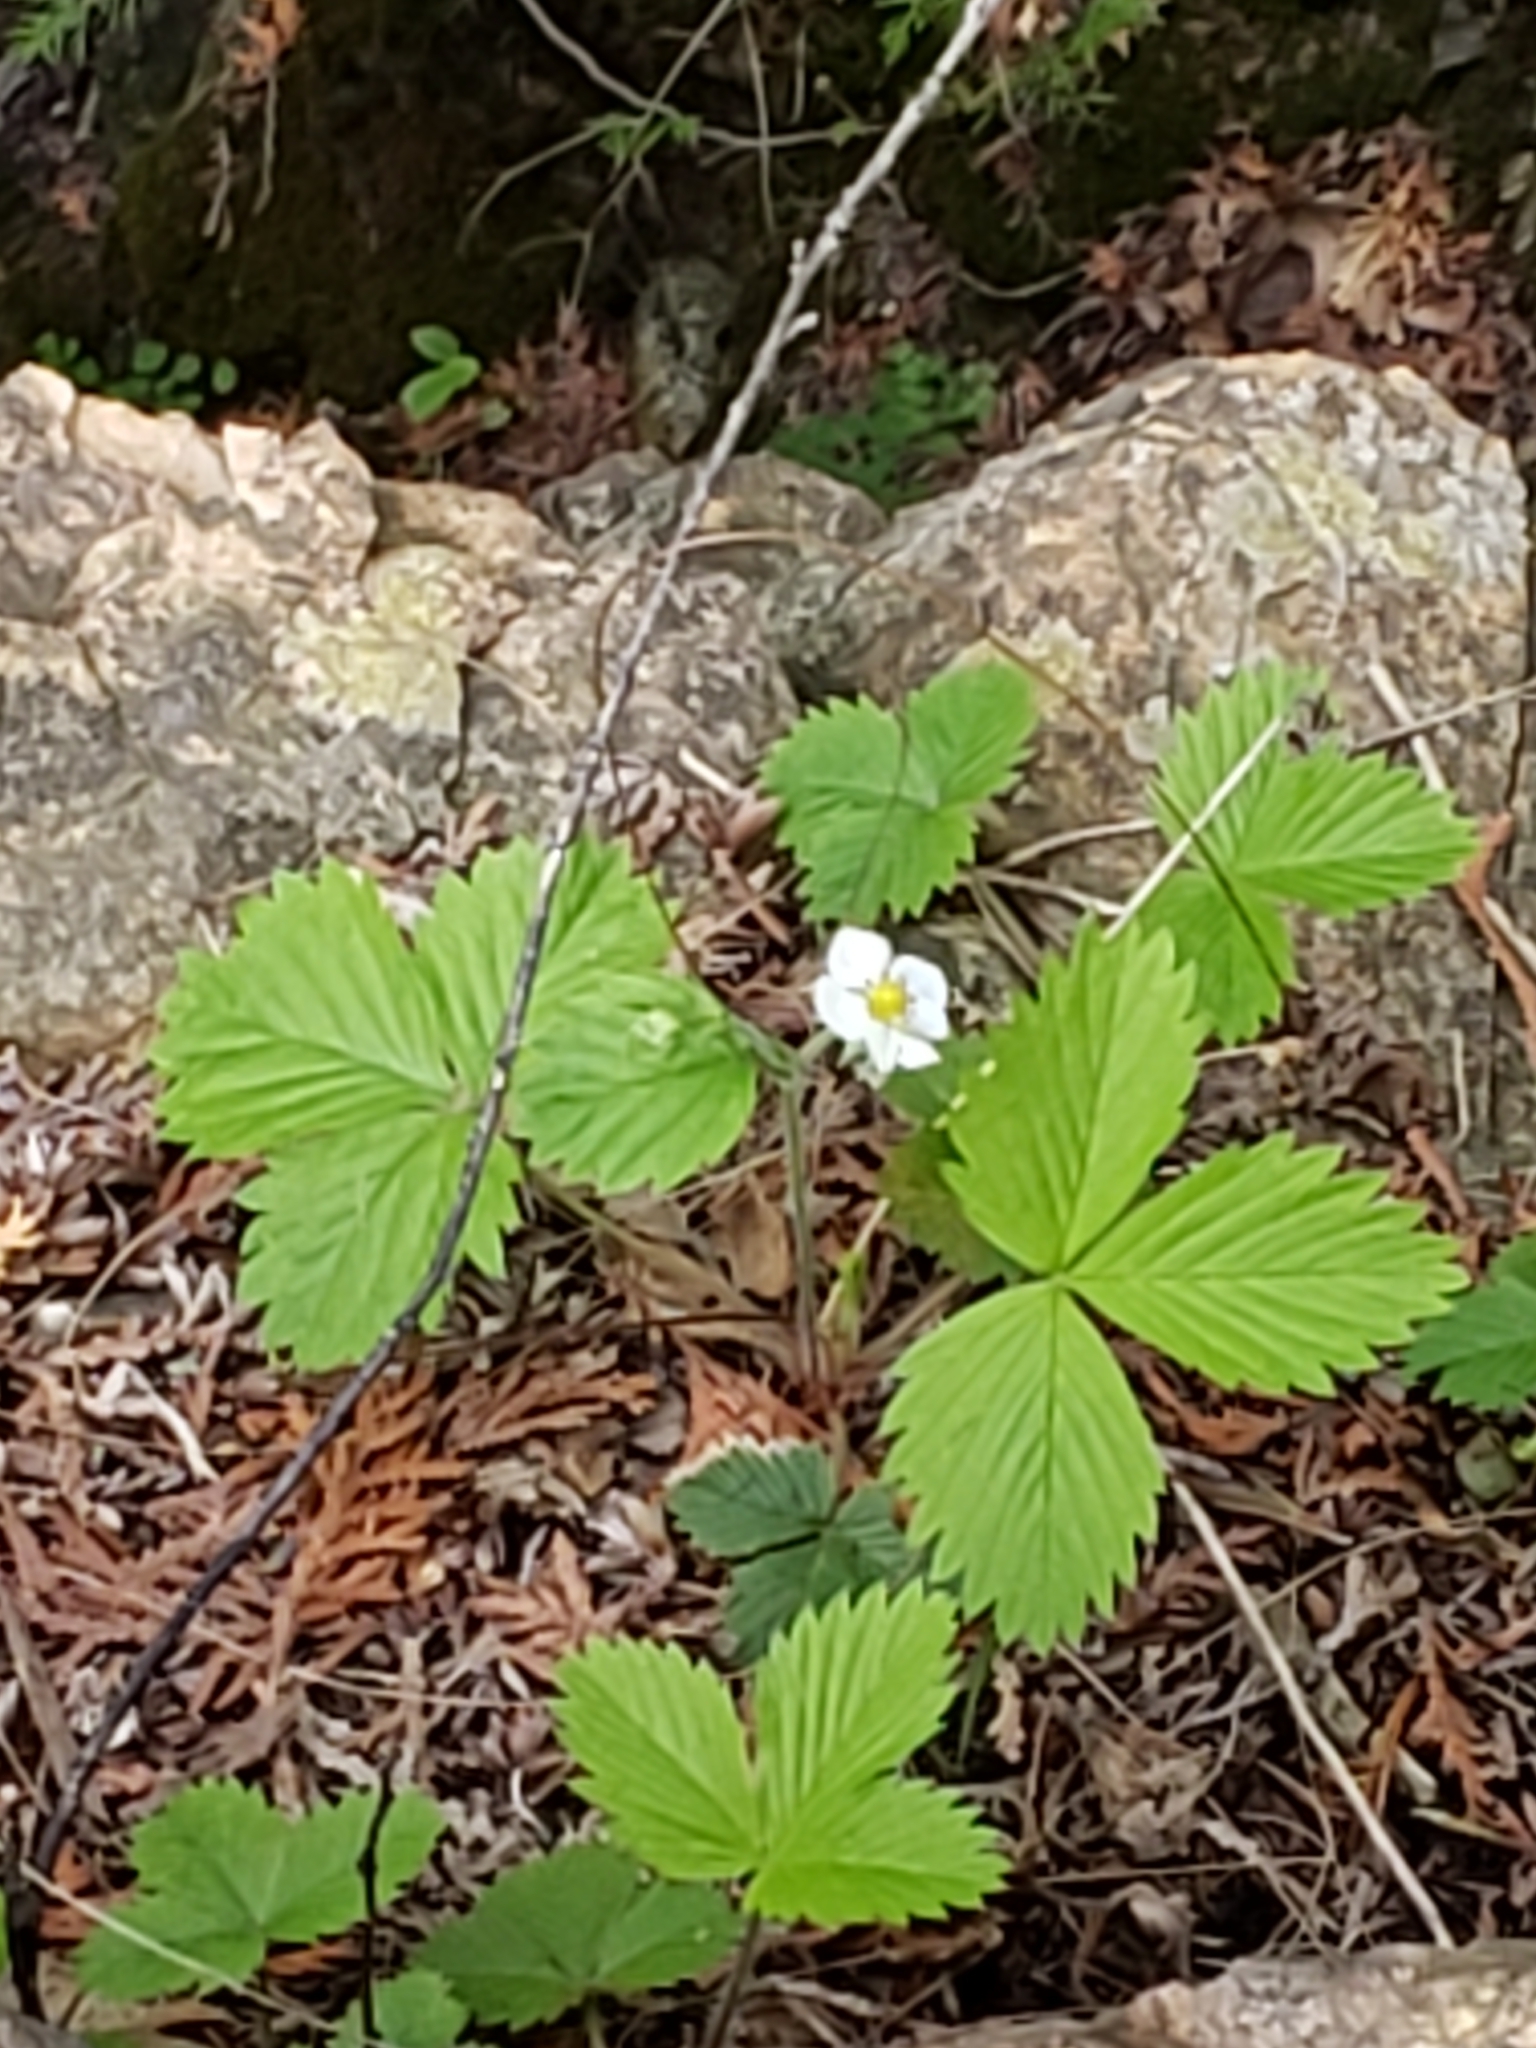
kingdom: Plantae
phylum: Tracheophyta
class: Magnoliopsida
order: Rosales
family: Rosaceae
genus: Fragaria
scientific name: Fragaria vesca
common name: Wild strawberry
